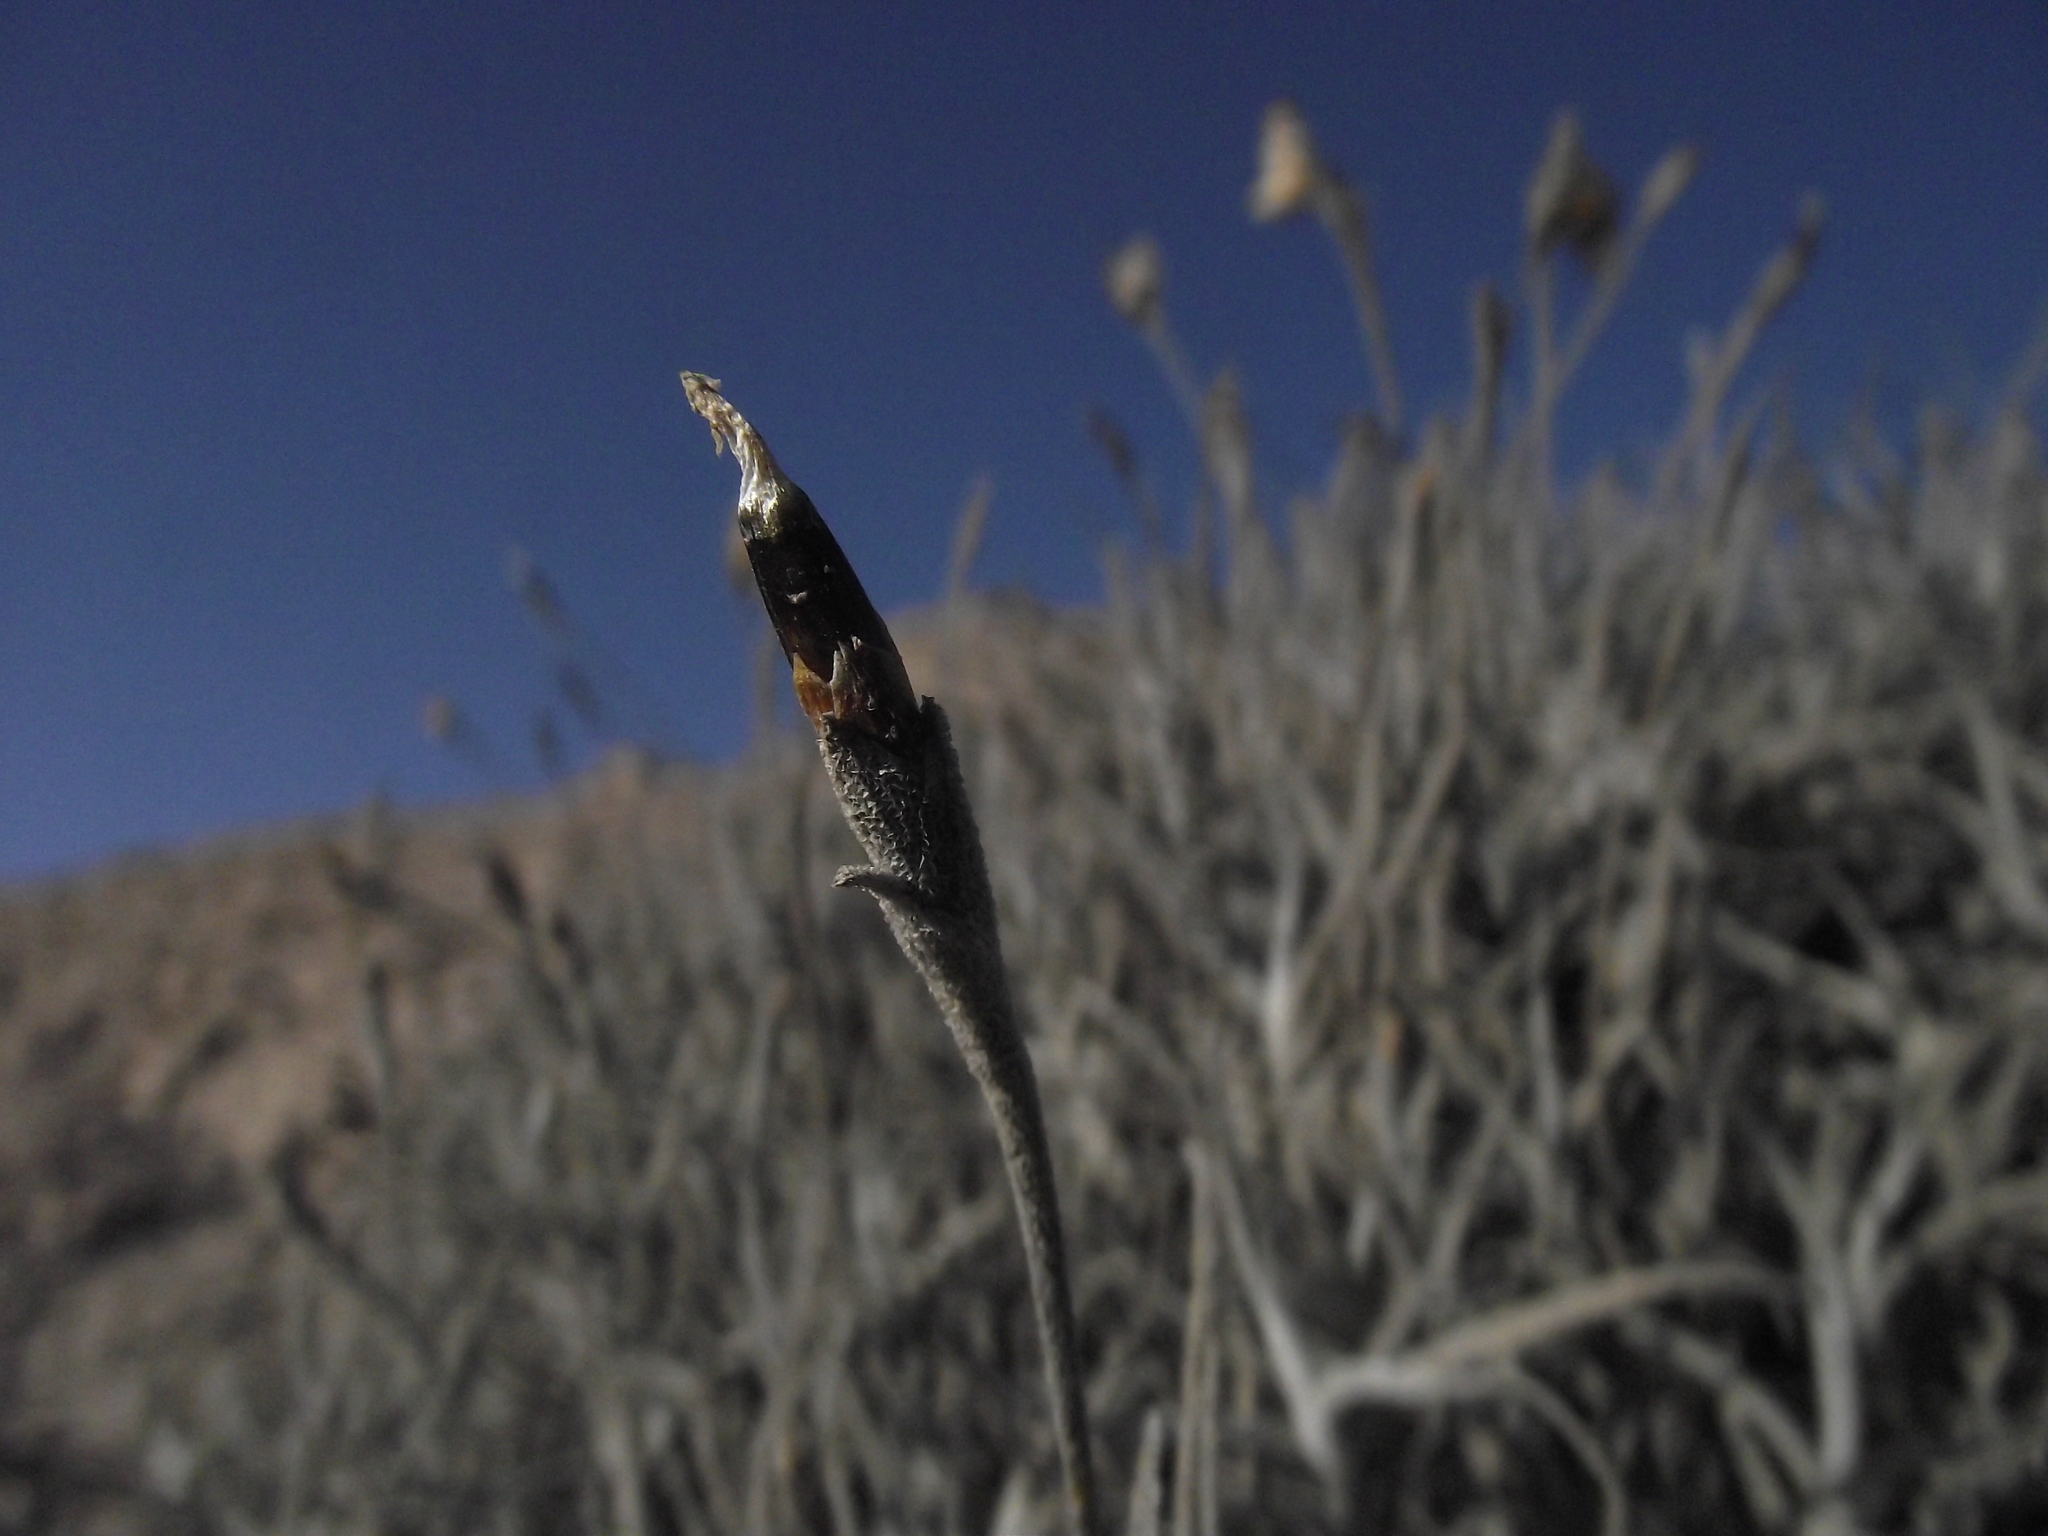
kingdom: Plantae
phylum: Tracheophyta
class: Liliopsida
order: Poales
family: Bromeliaceae
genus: Tillandsia
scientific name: Tillandsia landbeckii
